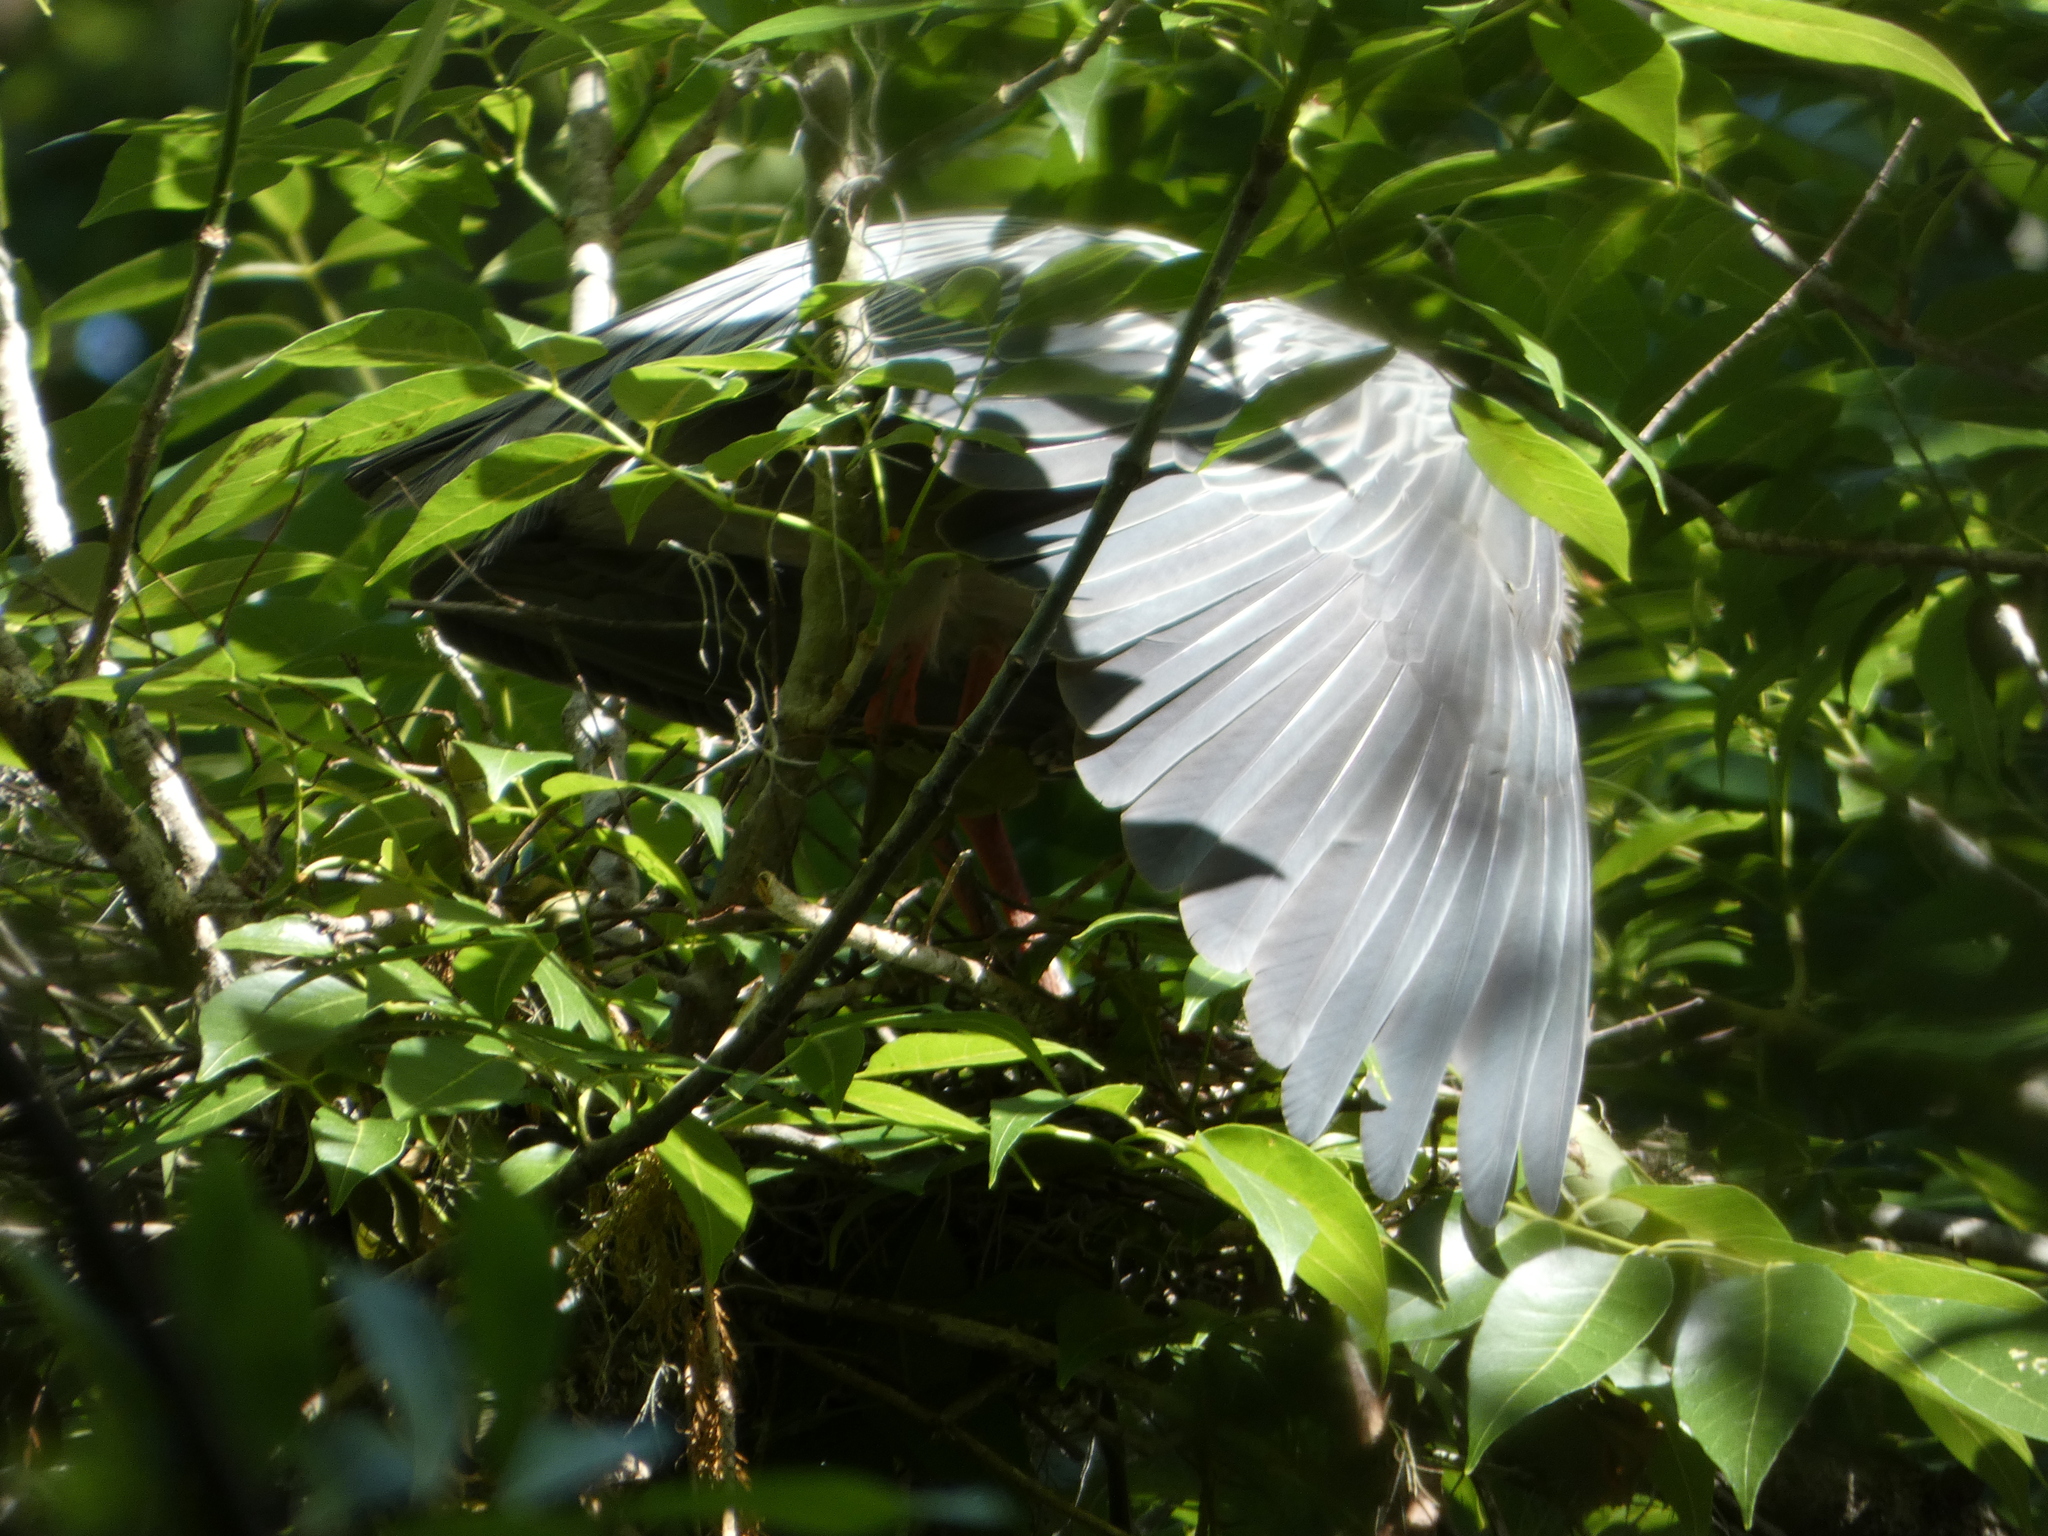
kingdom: Animalia
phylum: Chordata
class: Aves
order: Pelecaniformes
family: Ardeidae
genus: Nyctanassa
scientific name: Nyctanassa violacea
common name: Yellow-crowned night heron
